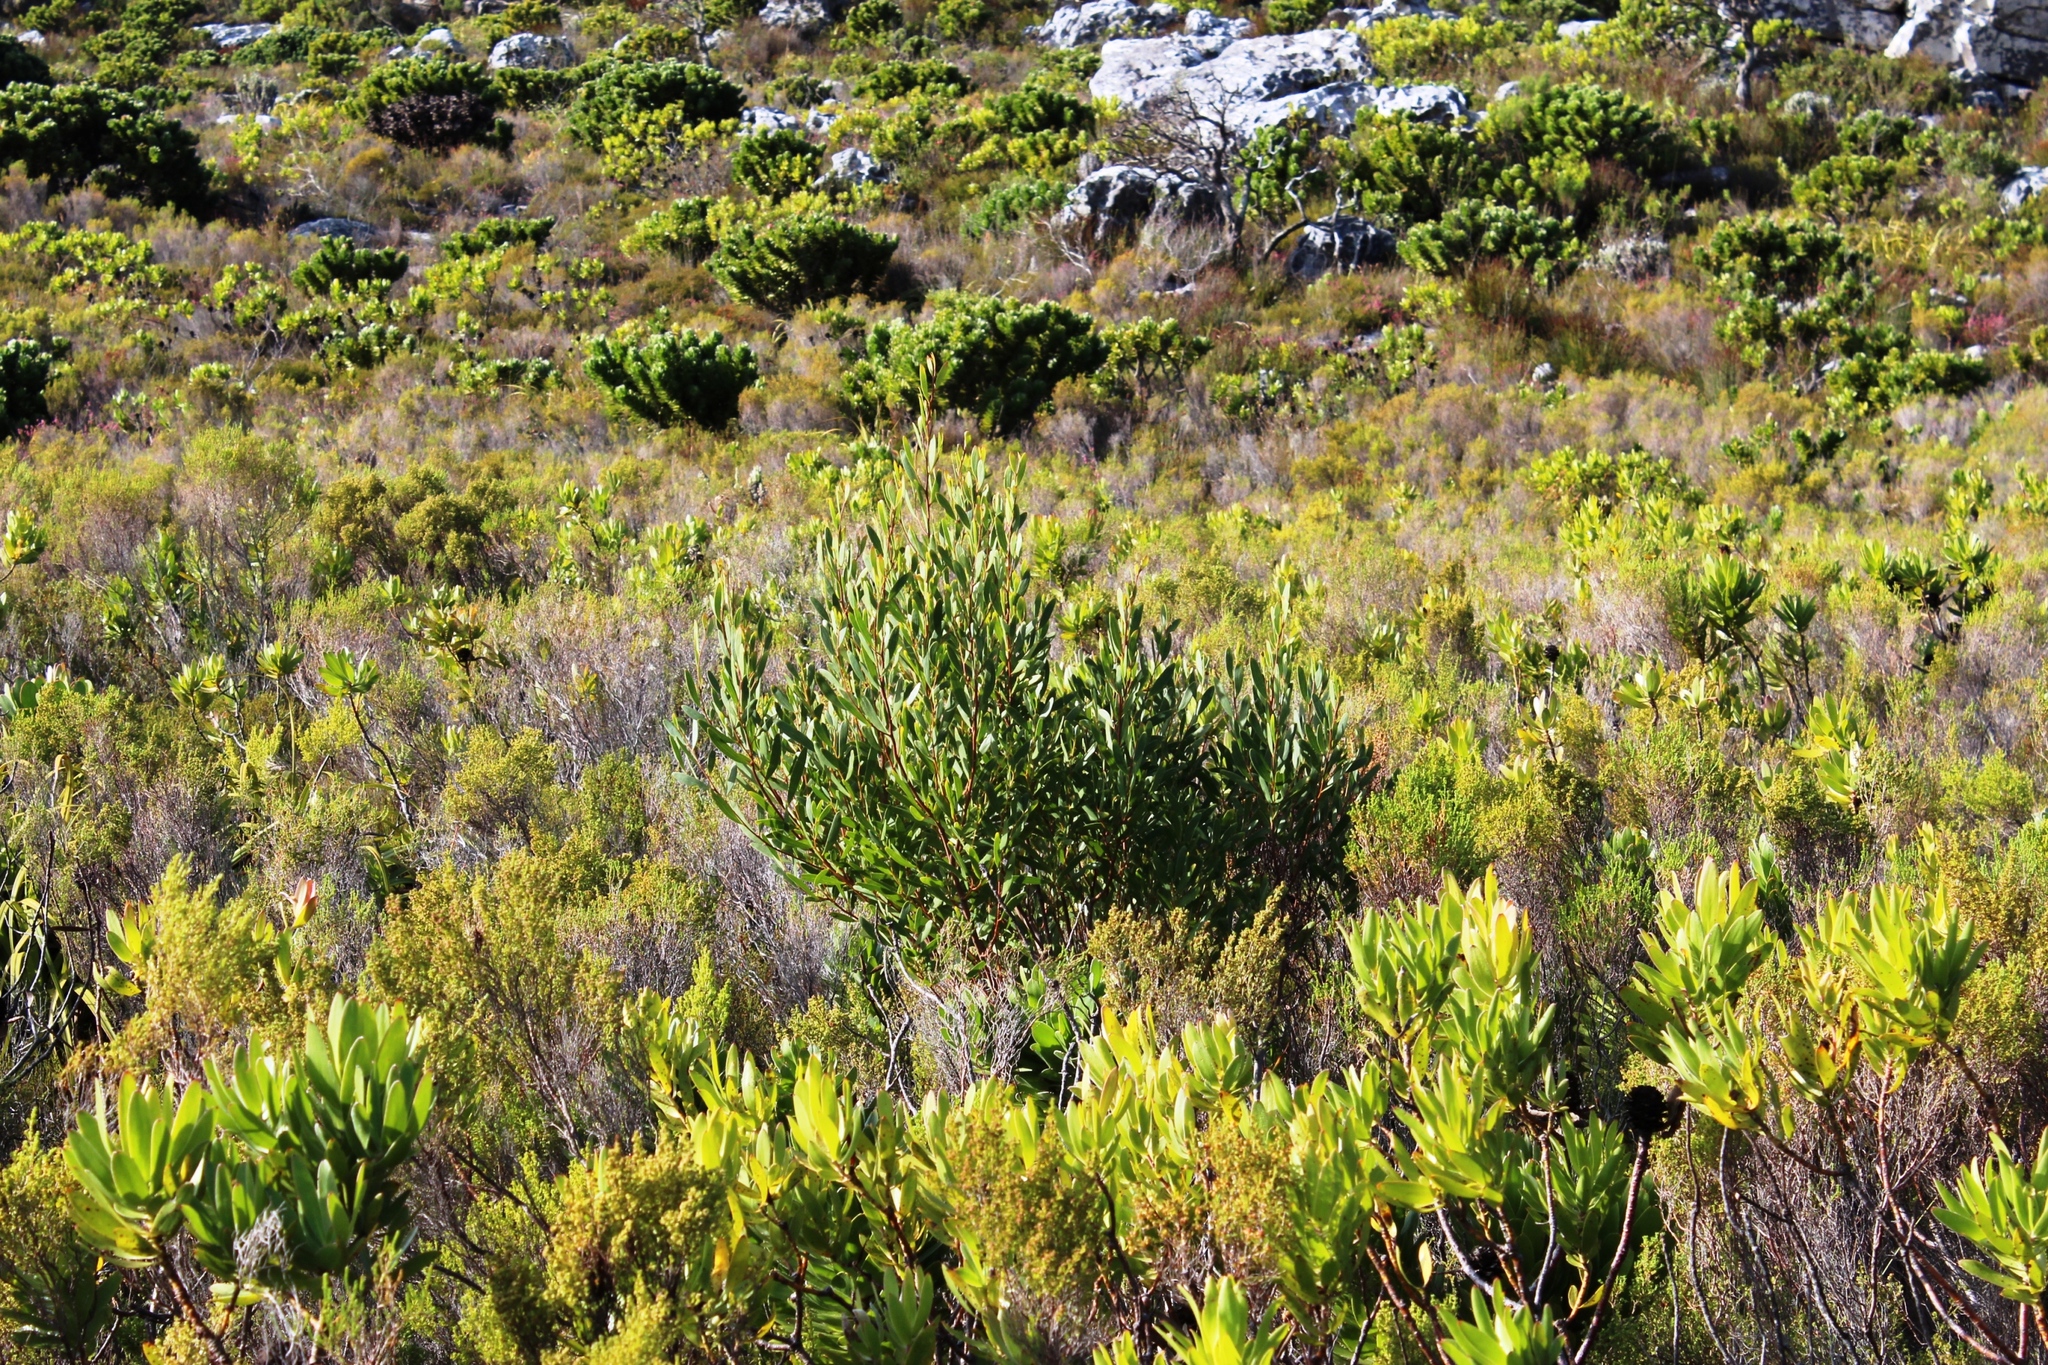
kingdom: Plantae
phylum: Tracheophyta
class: Magnoliopsida
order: Fabales
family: Fabaceae
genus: Acacia
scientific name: Acacia cyclops
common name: Coastal wattle
